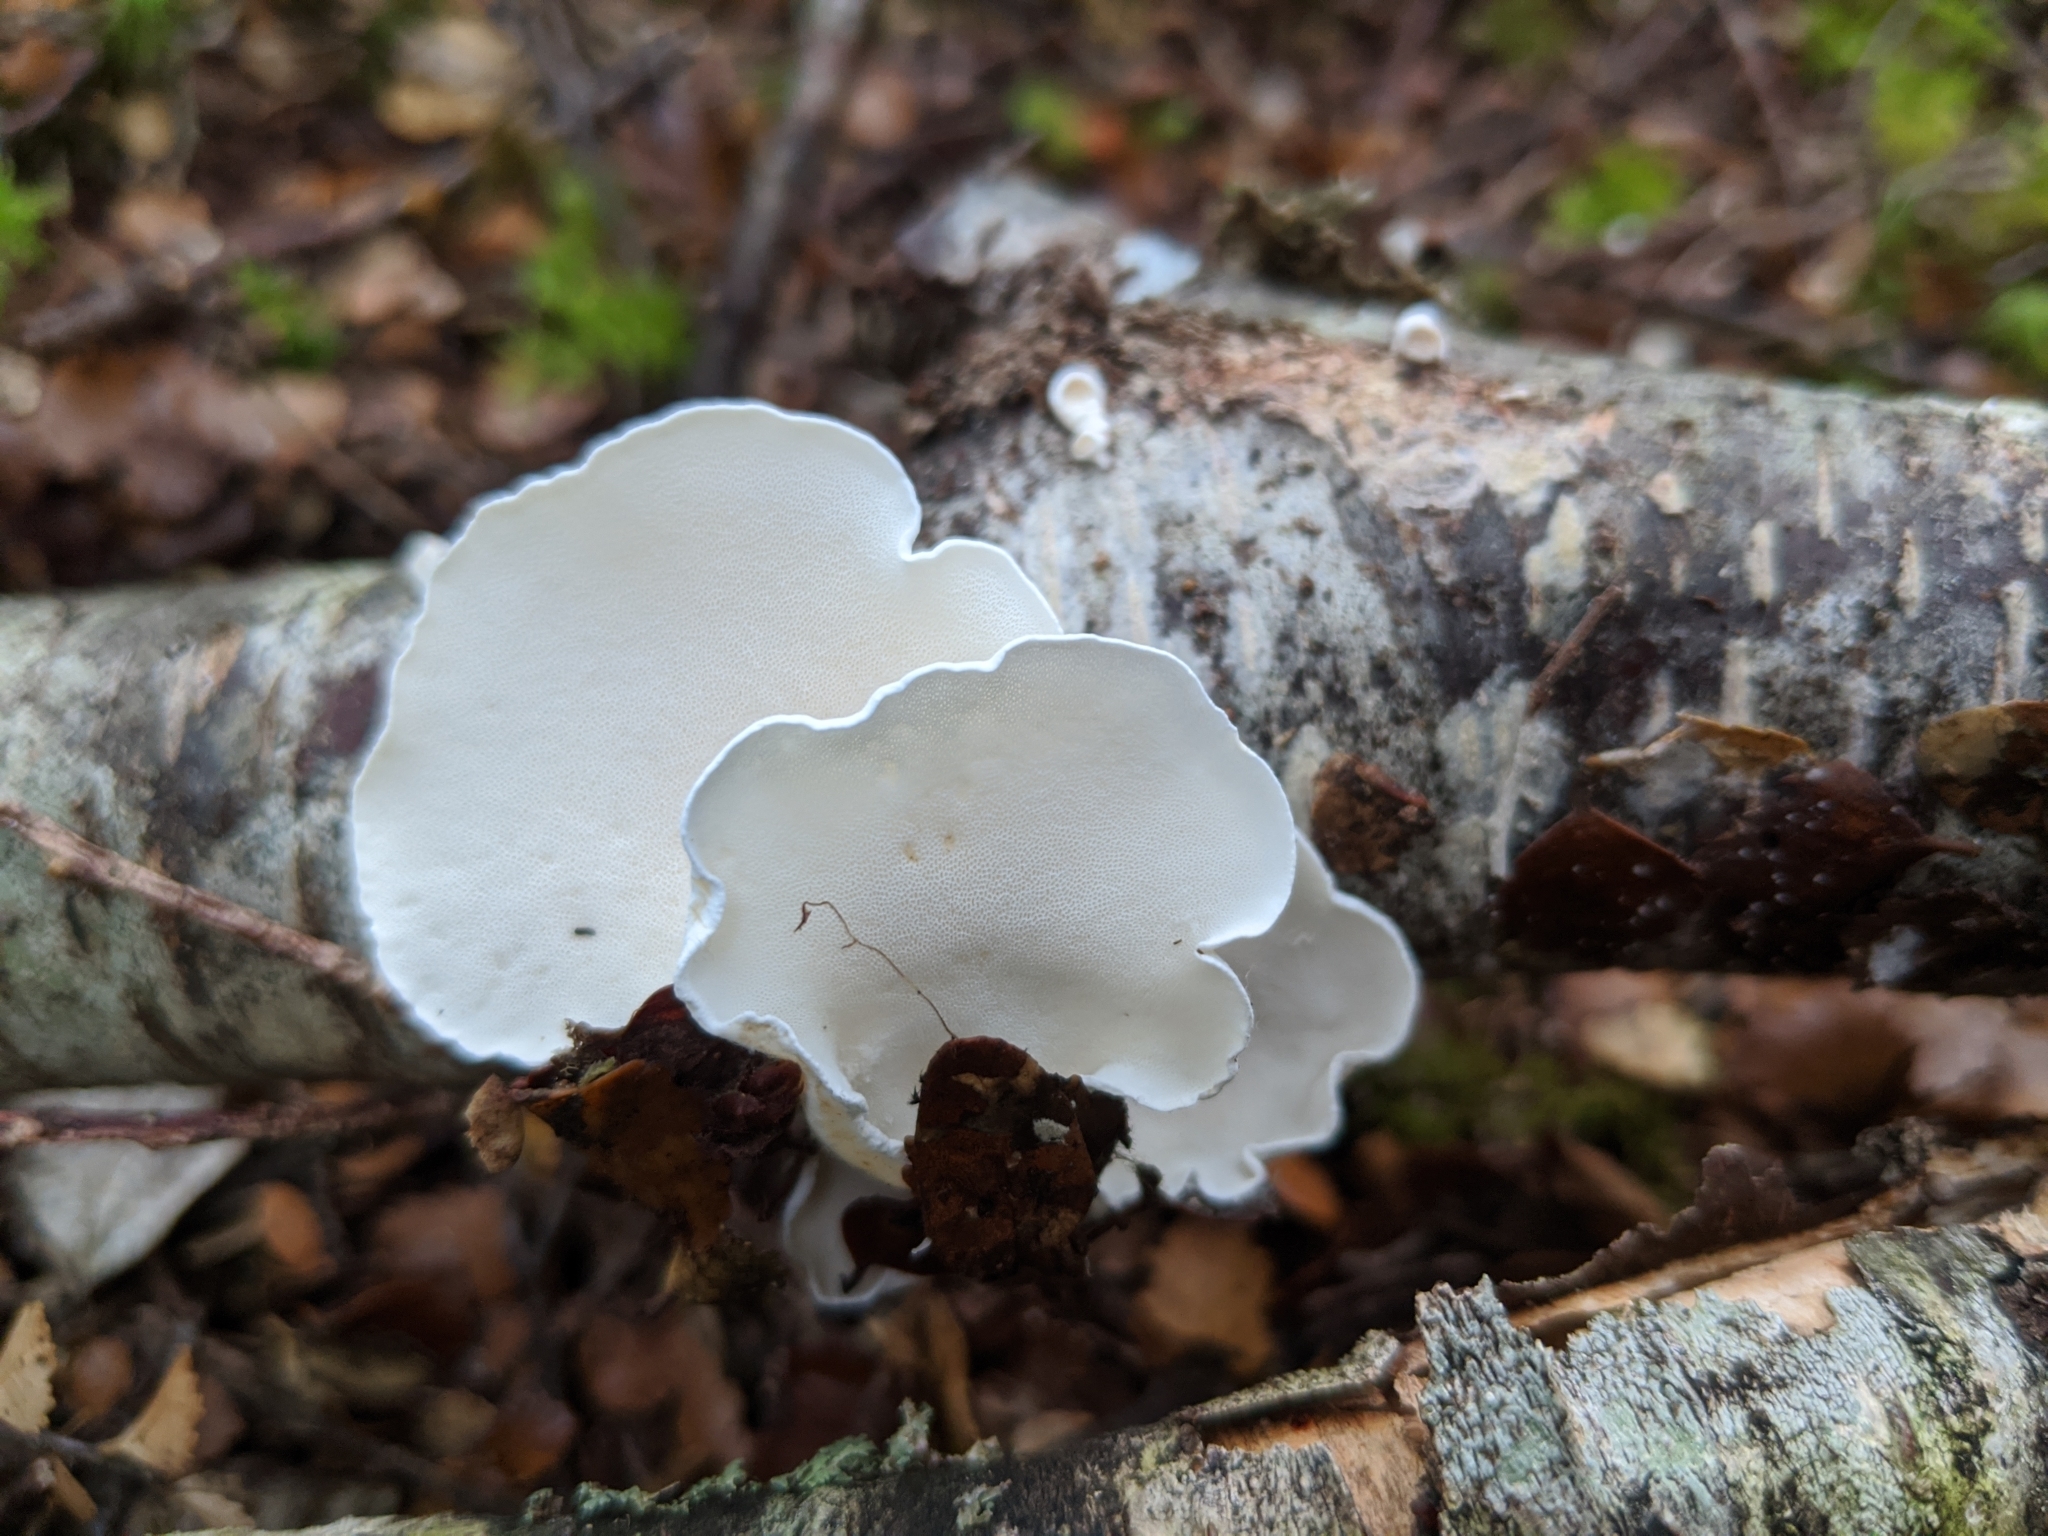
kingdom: Fungi
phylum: Basidiomycota
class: Agaricomycetes
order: Polyporales
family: Irpicaceae
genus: Gloeoporus
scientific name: Gloeoporus phlebophorus
